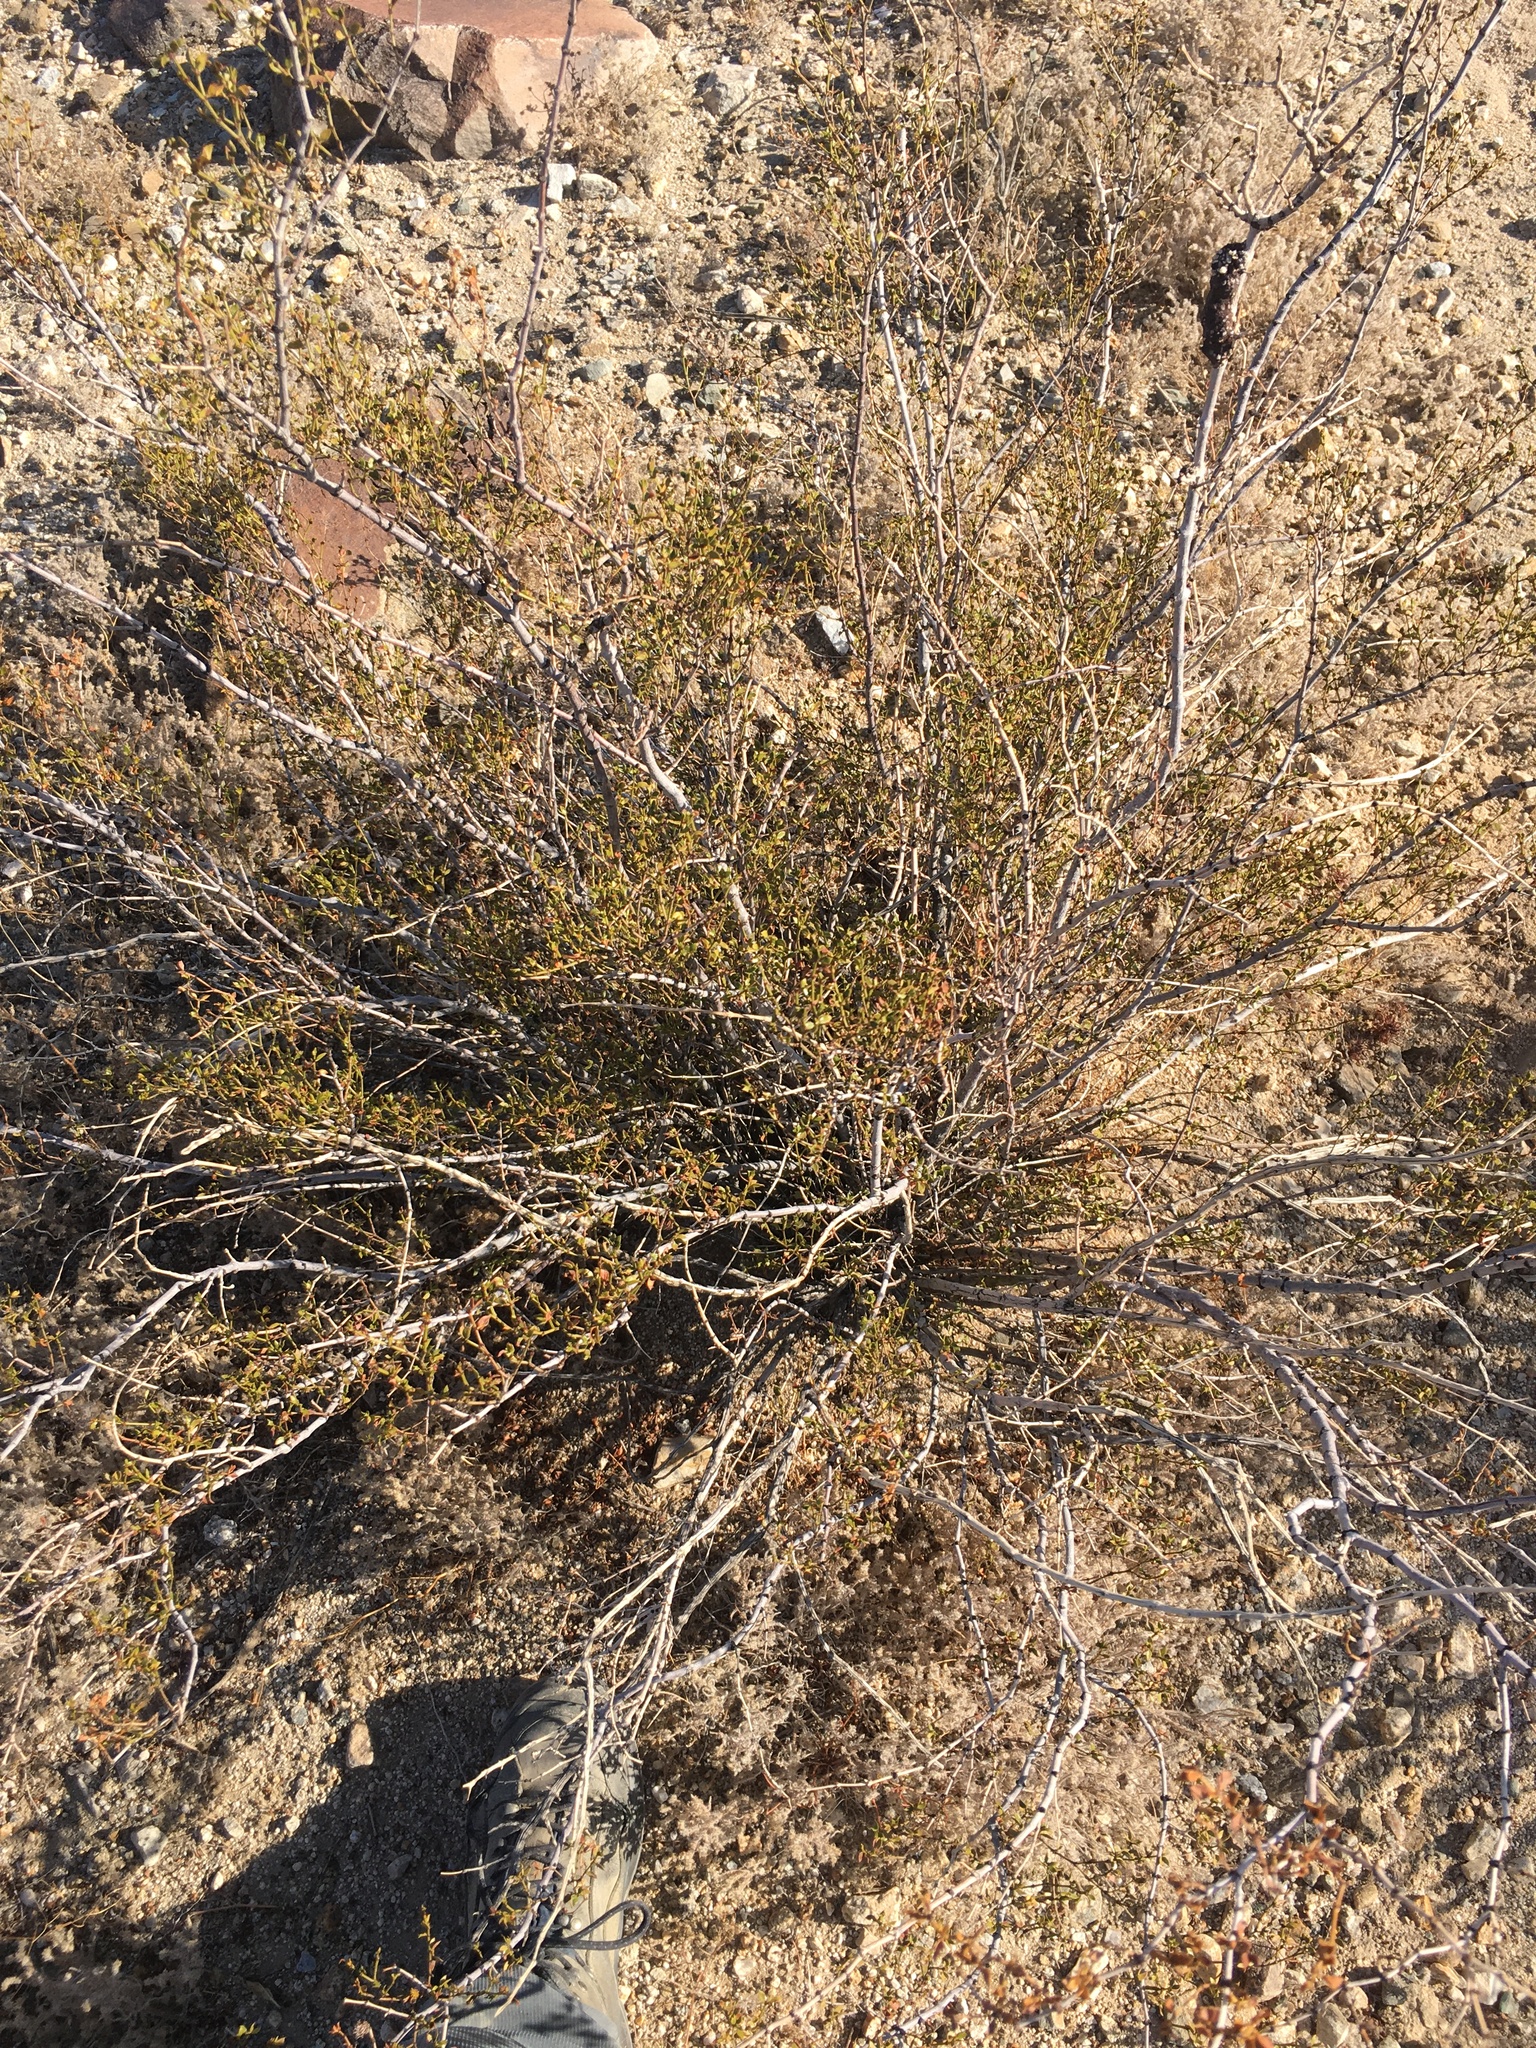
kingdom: Plantae
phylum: Tracheophyta
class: Magnoliopsida
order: Zygophyllales
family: Zygophyllaceae
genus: Larrea
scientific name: Larrea tridentata
